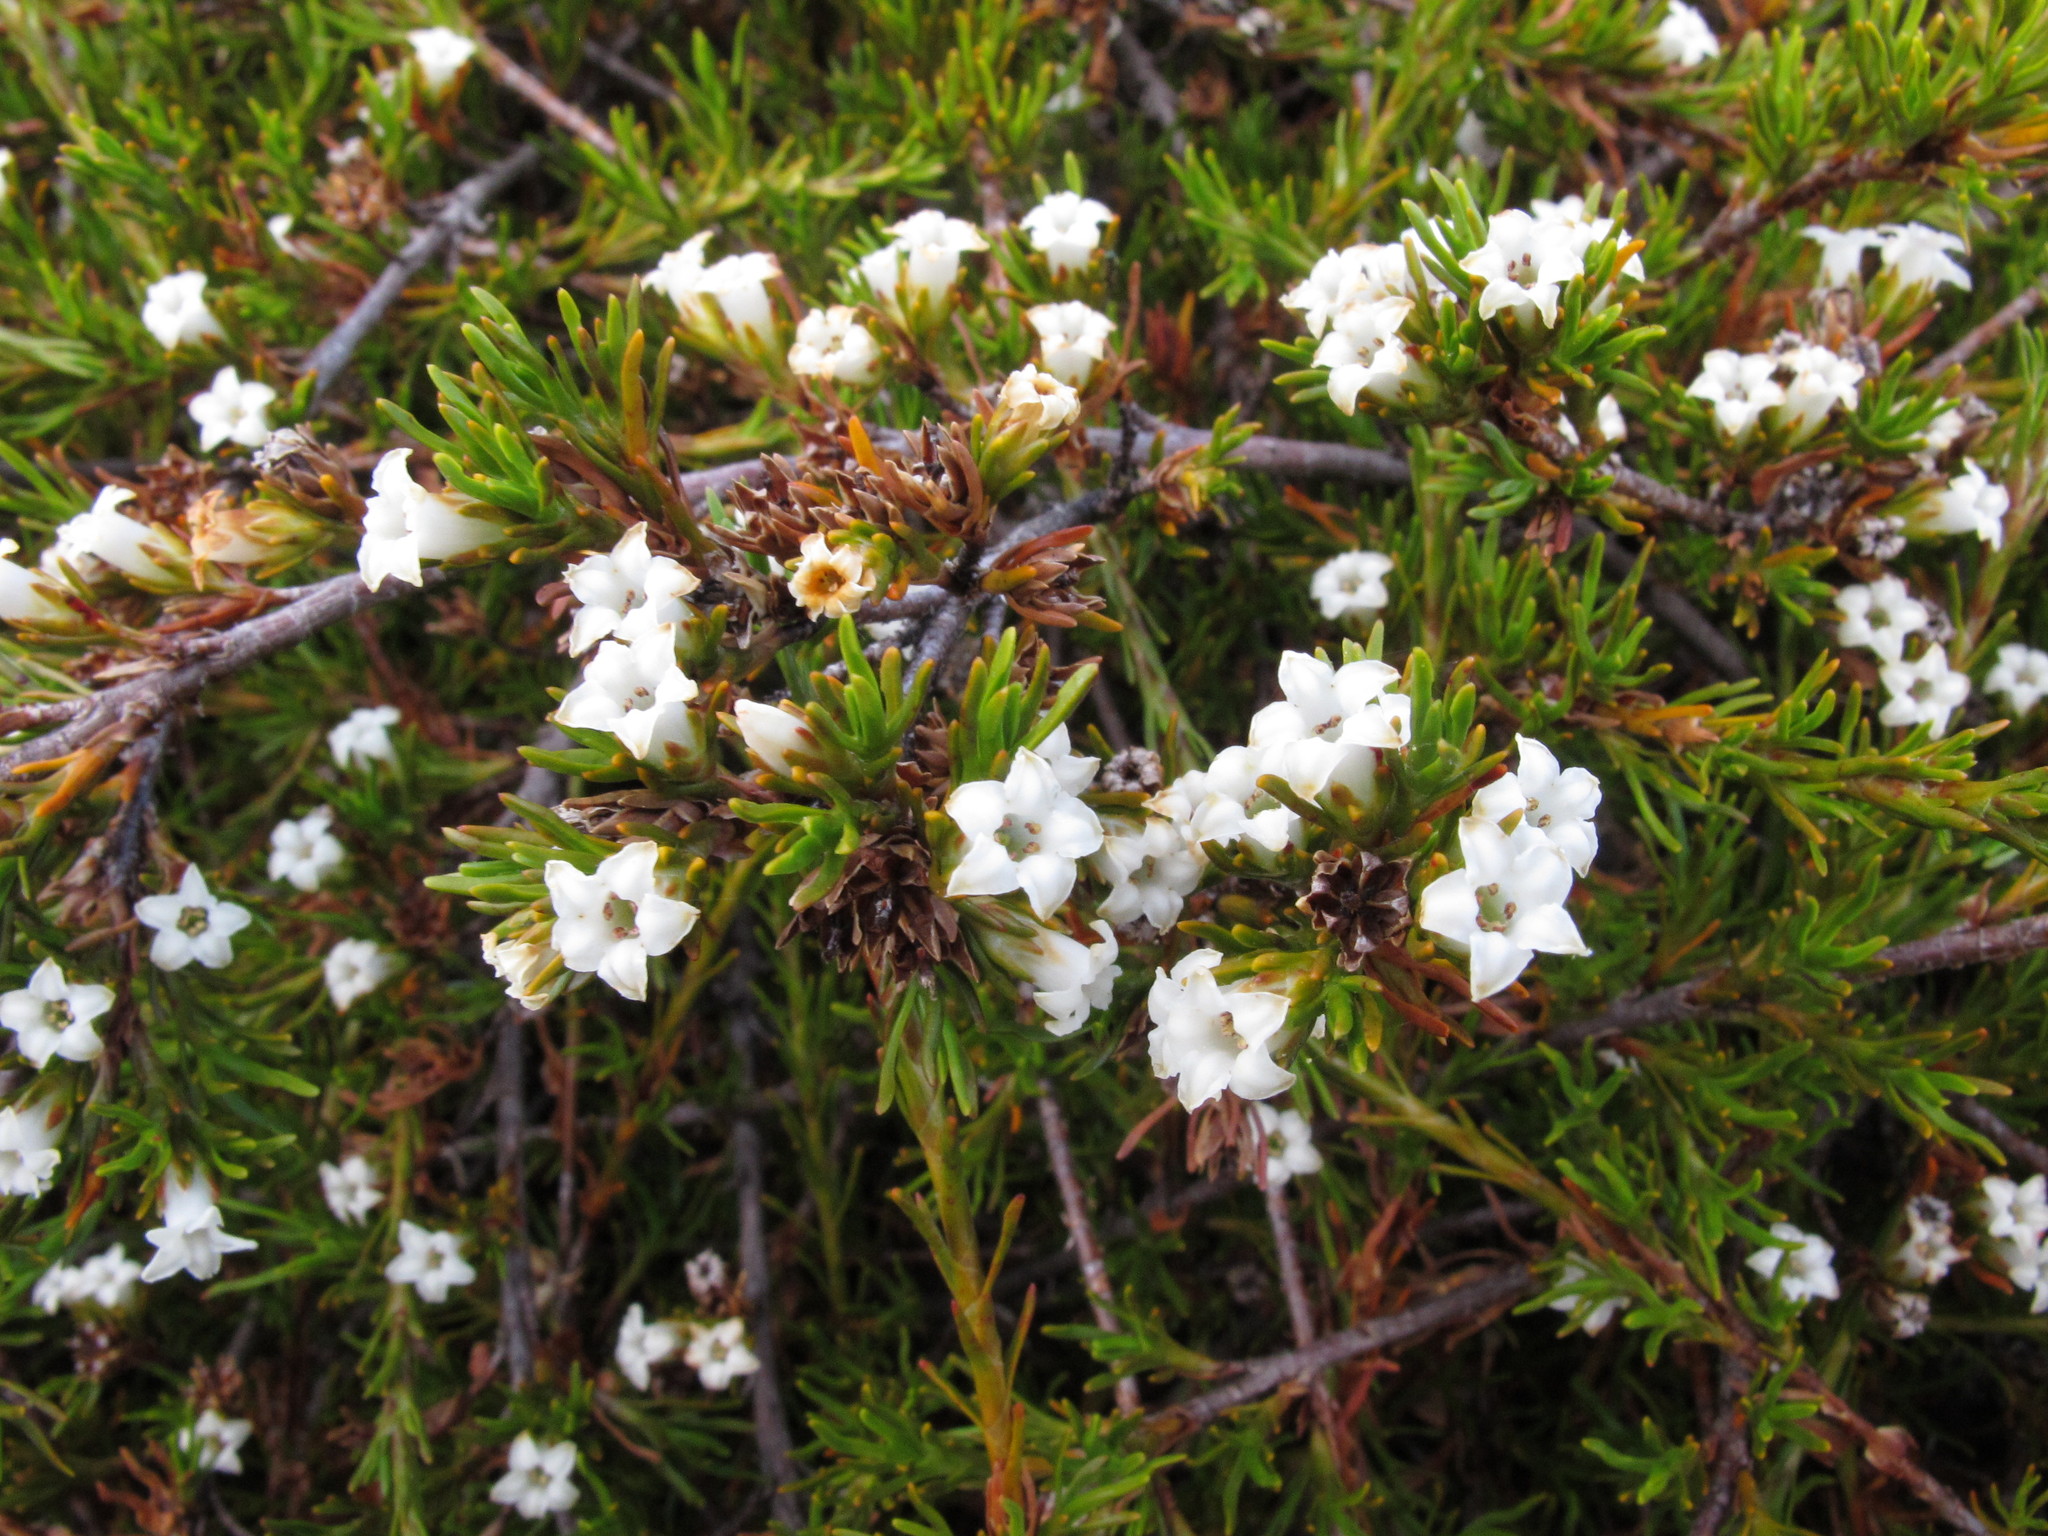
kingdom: Plantae
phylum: Tracheophyta
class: Magnoliopsida
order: Ericales
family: Ericaceae
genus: Dracophyllum
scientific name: Dracophyllum pronum
